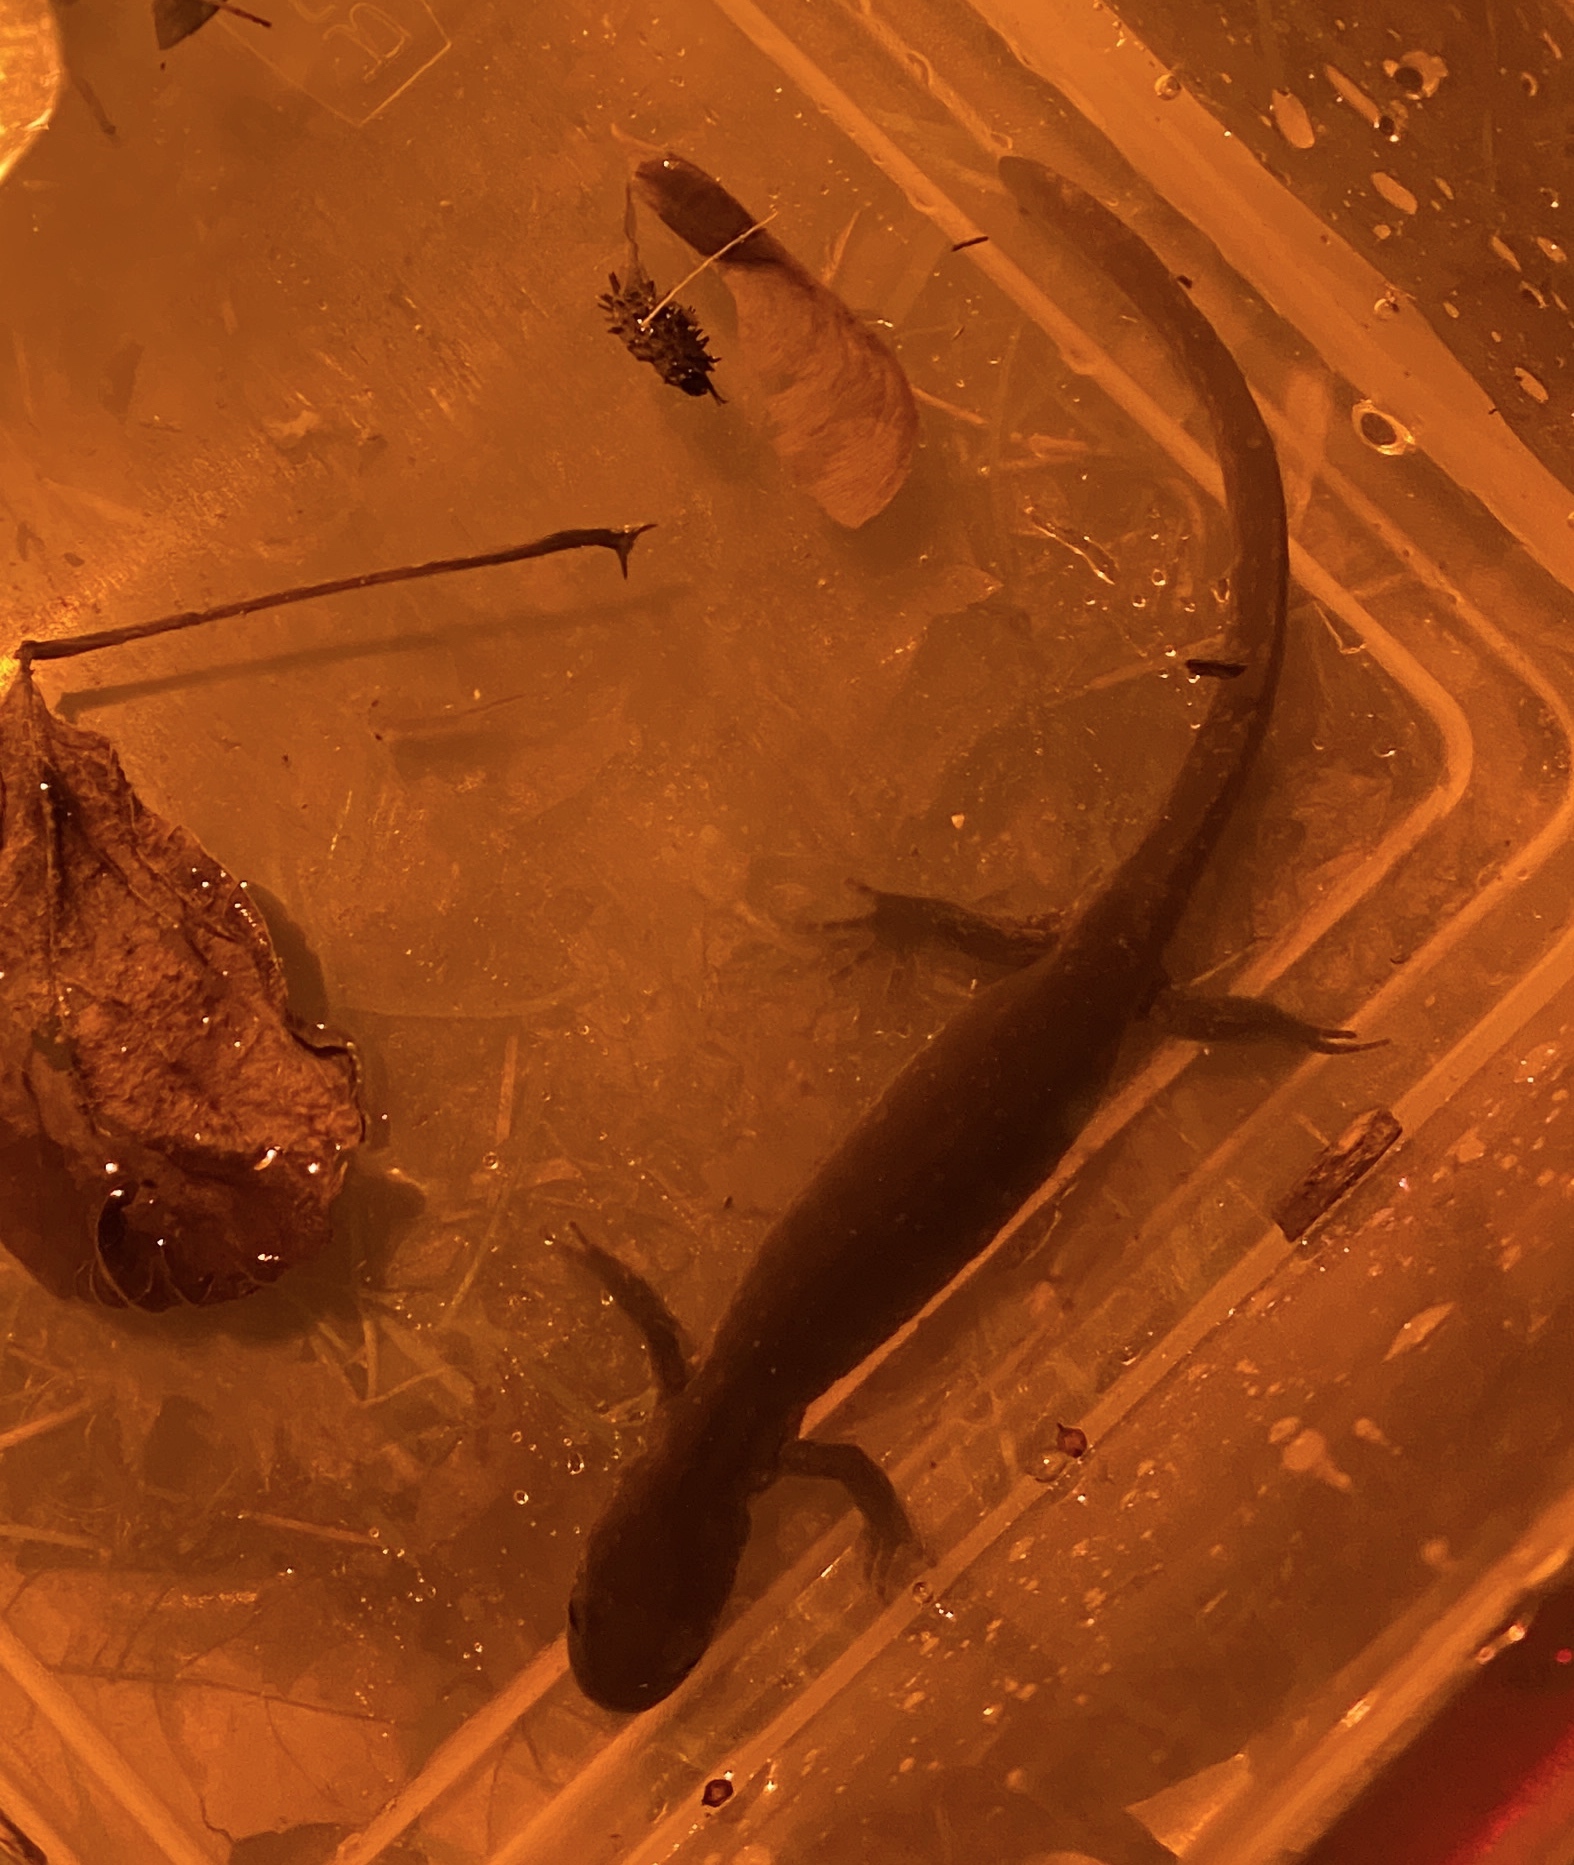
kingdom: Animalia
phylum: Chordata
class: Amphibia
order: Caudata
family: Ambystomatidae
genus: Ambystoma
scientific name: Ambystoma jeffersonianum
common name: Jefferson salamander
